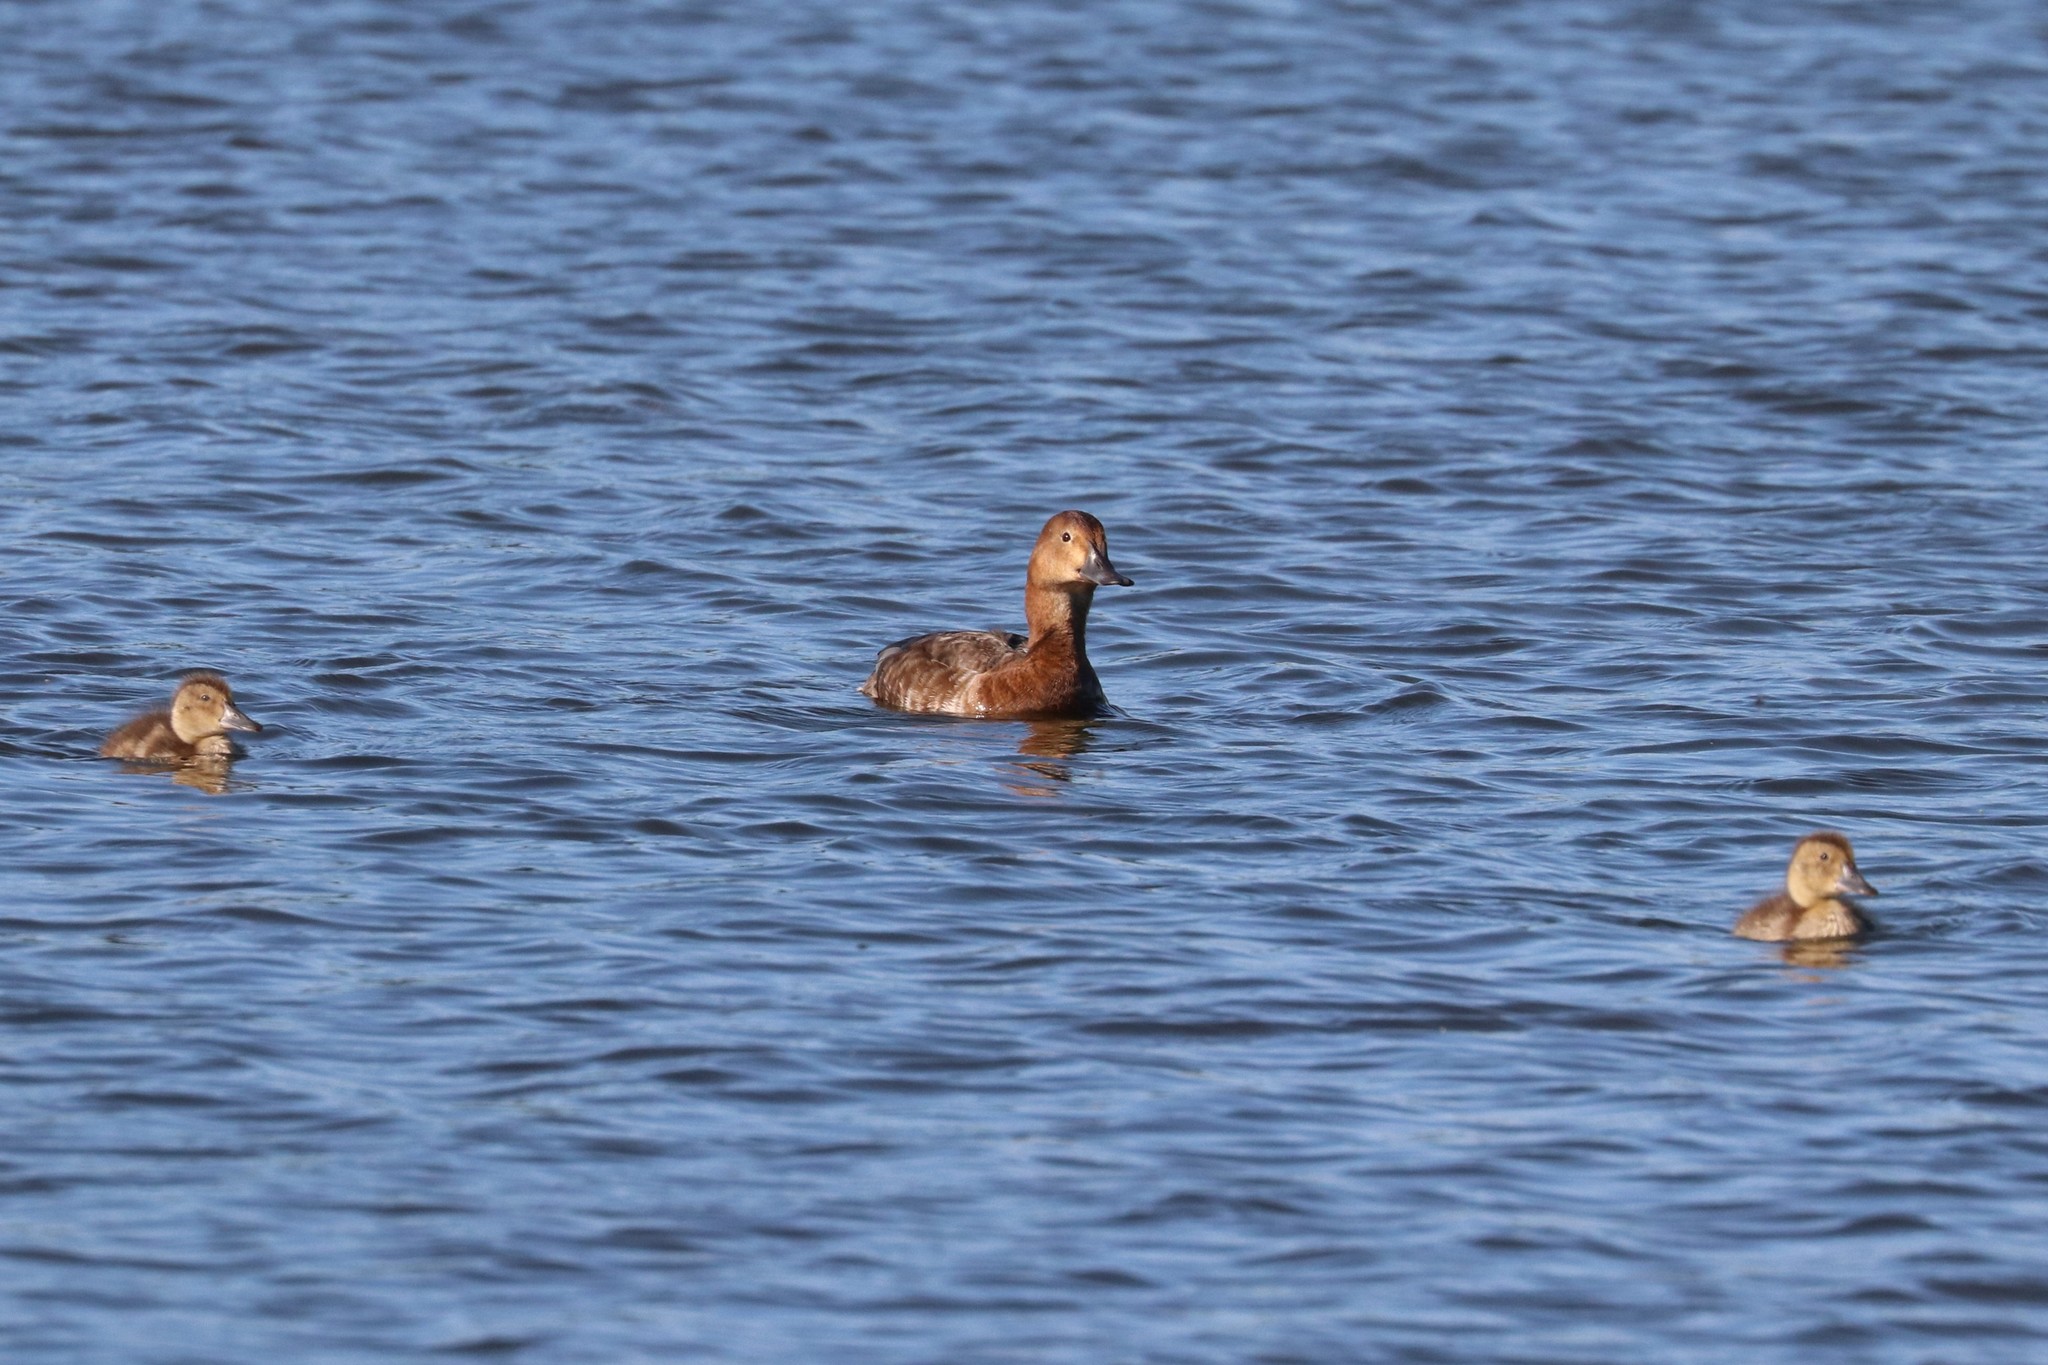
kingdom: Animalia
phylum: Chordata
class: Aves
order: Anseriformes
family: Anatidae
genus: Aythya
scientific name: Aythya ferina
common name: Common pochard
